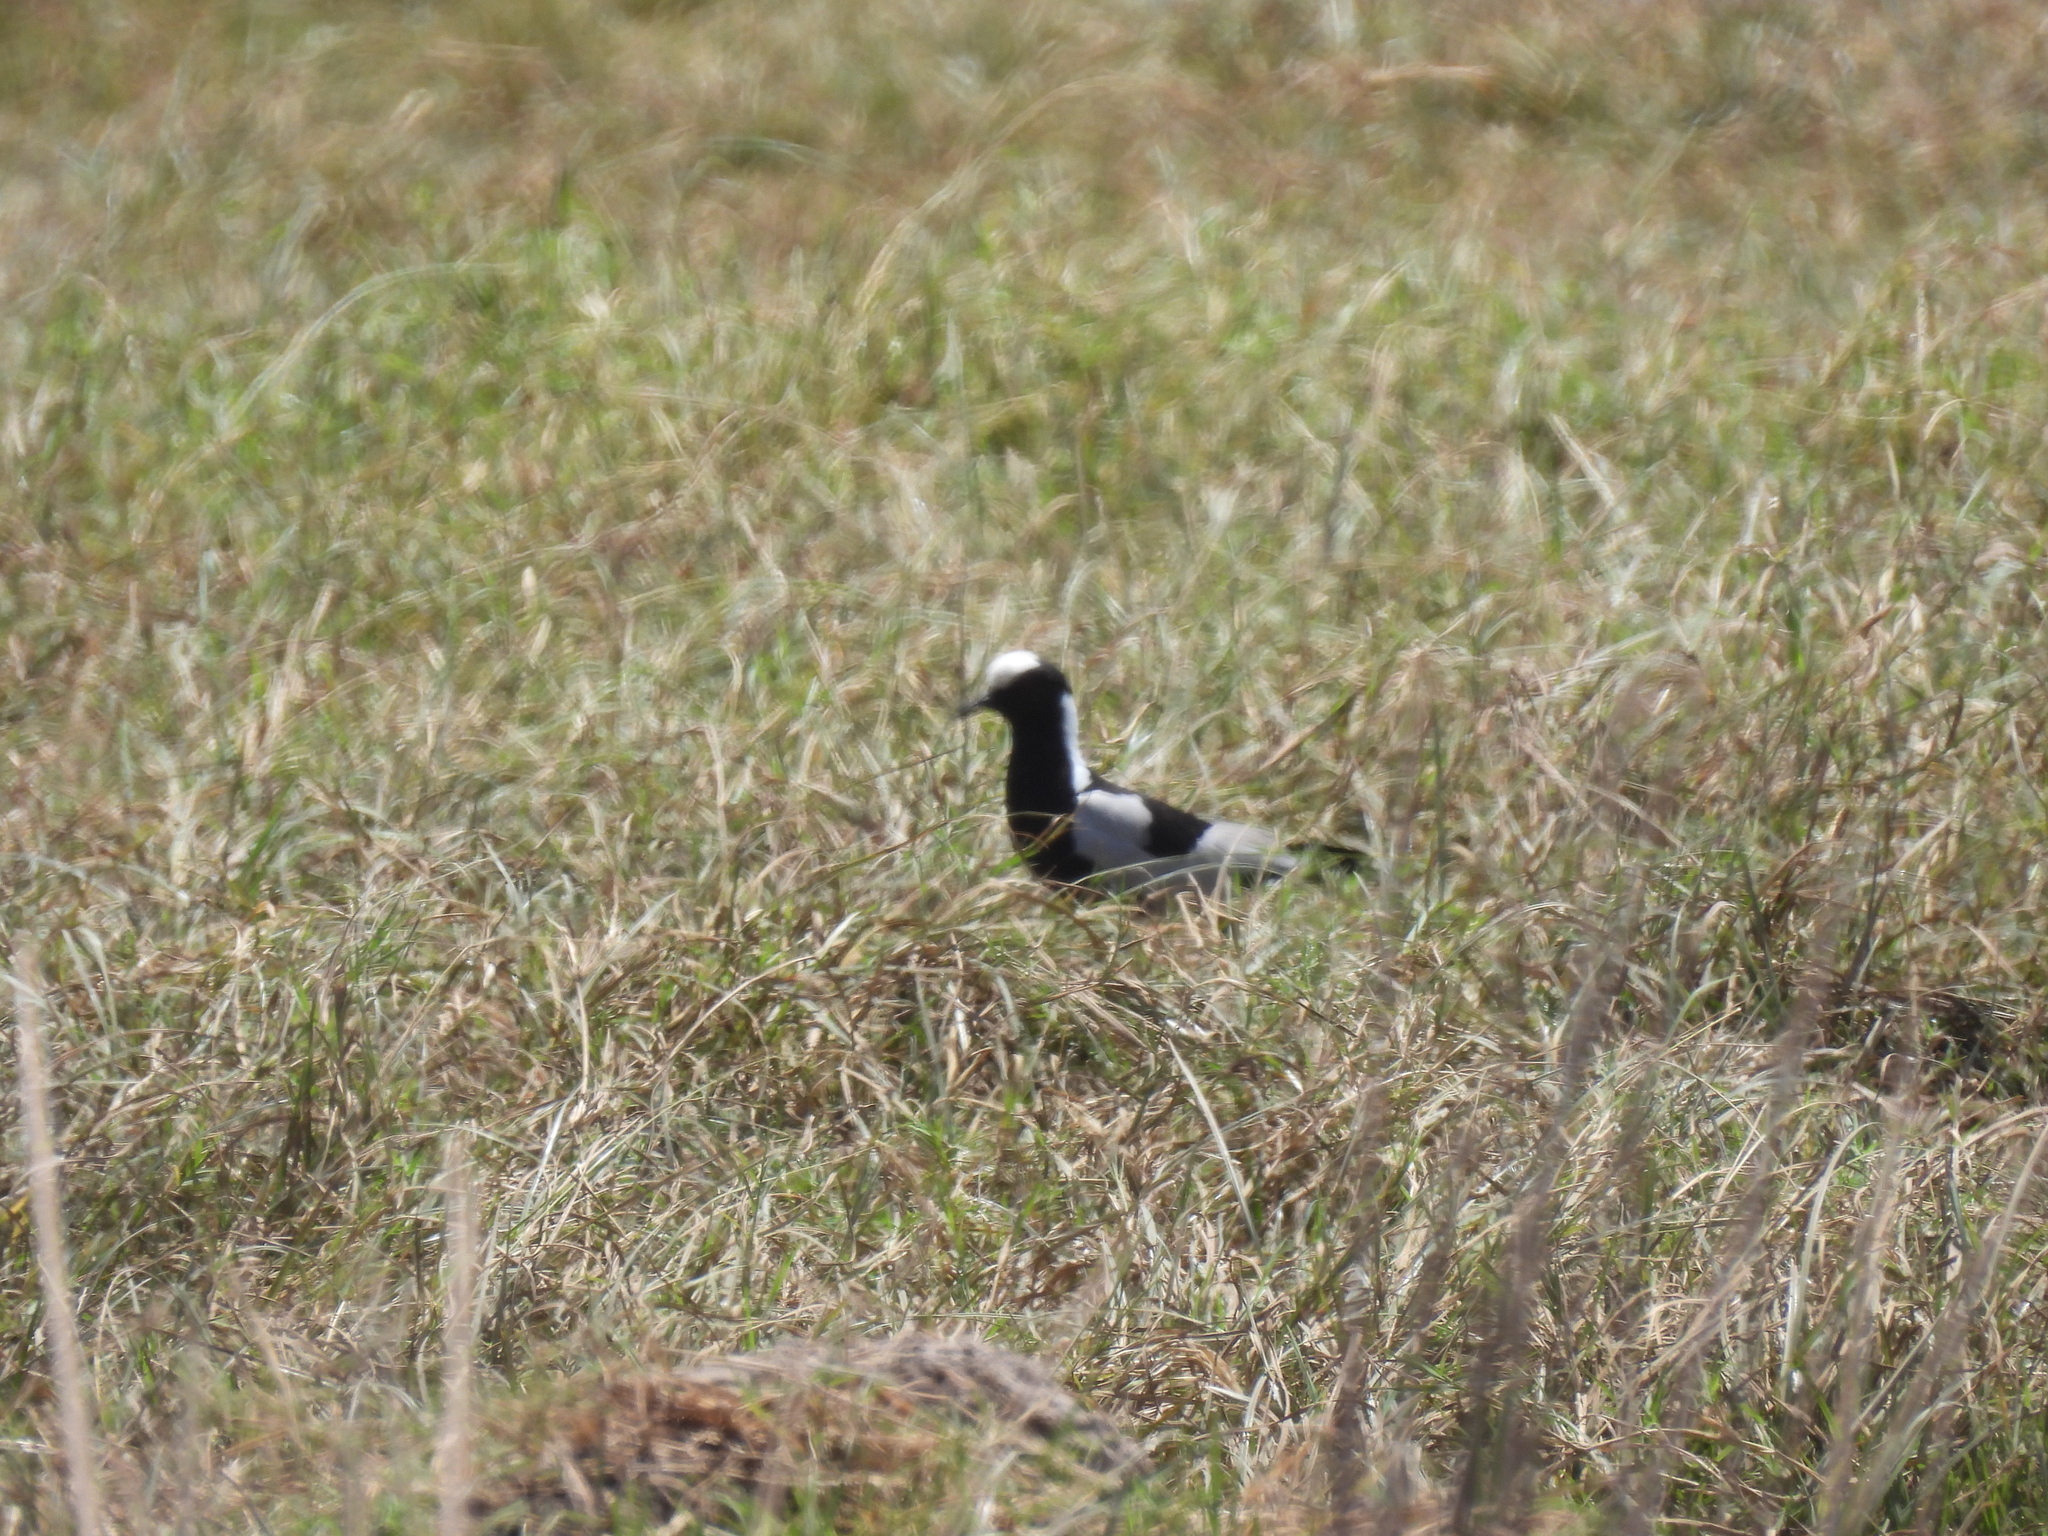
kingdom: Animalia
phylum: Chordata
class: Aves
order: Charadriiformes
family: Charadriidae
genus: Vanellus
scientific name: Vanellus armatus
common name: Blacksmith lapwing
